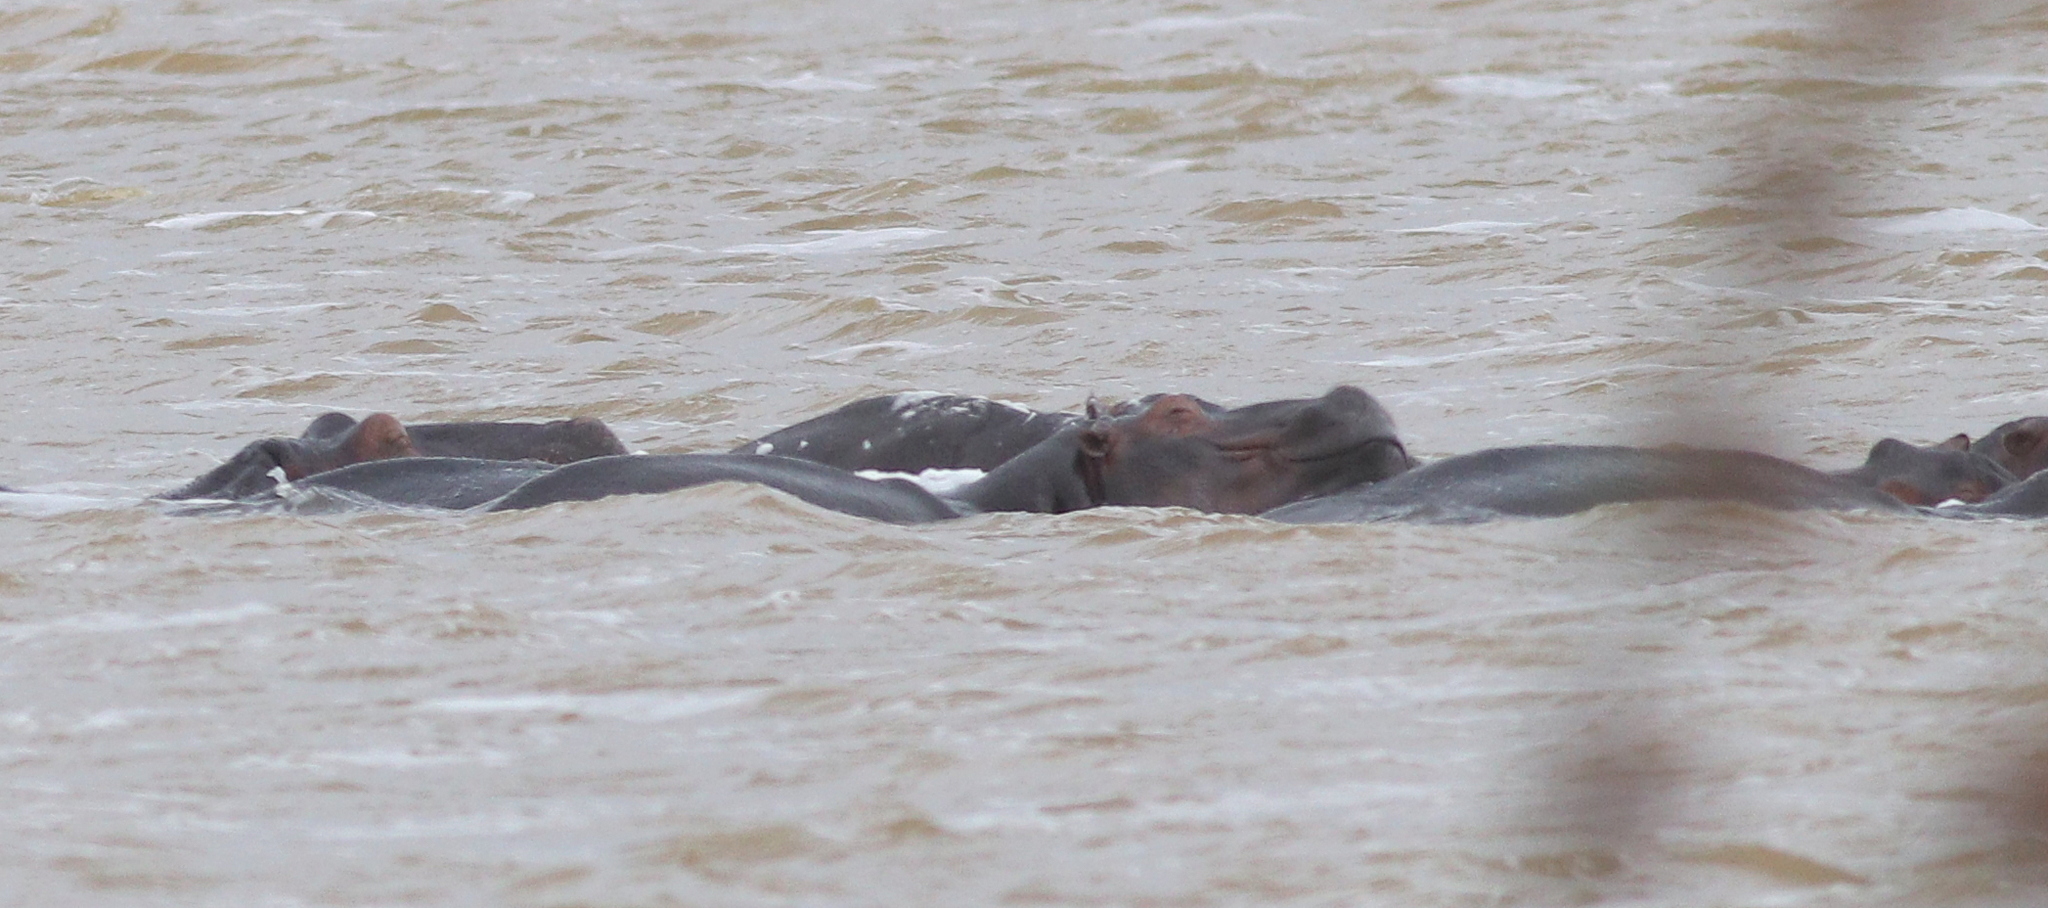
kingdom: Animalia
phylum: Chordata
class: Mammalia
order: Artiodactyla
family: Hippopotamidae
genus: Hippopotamus
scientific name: Hippopotamus amphibius
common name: Common hippopotamus
